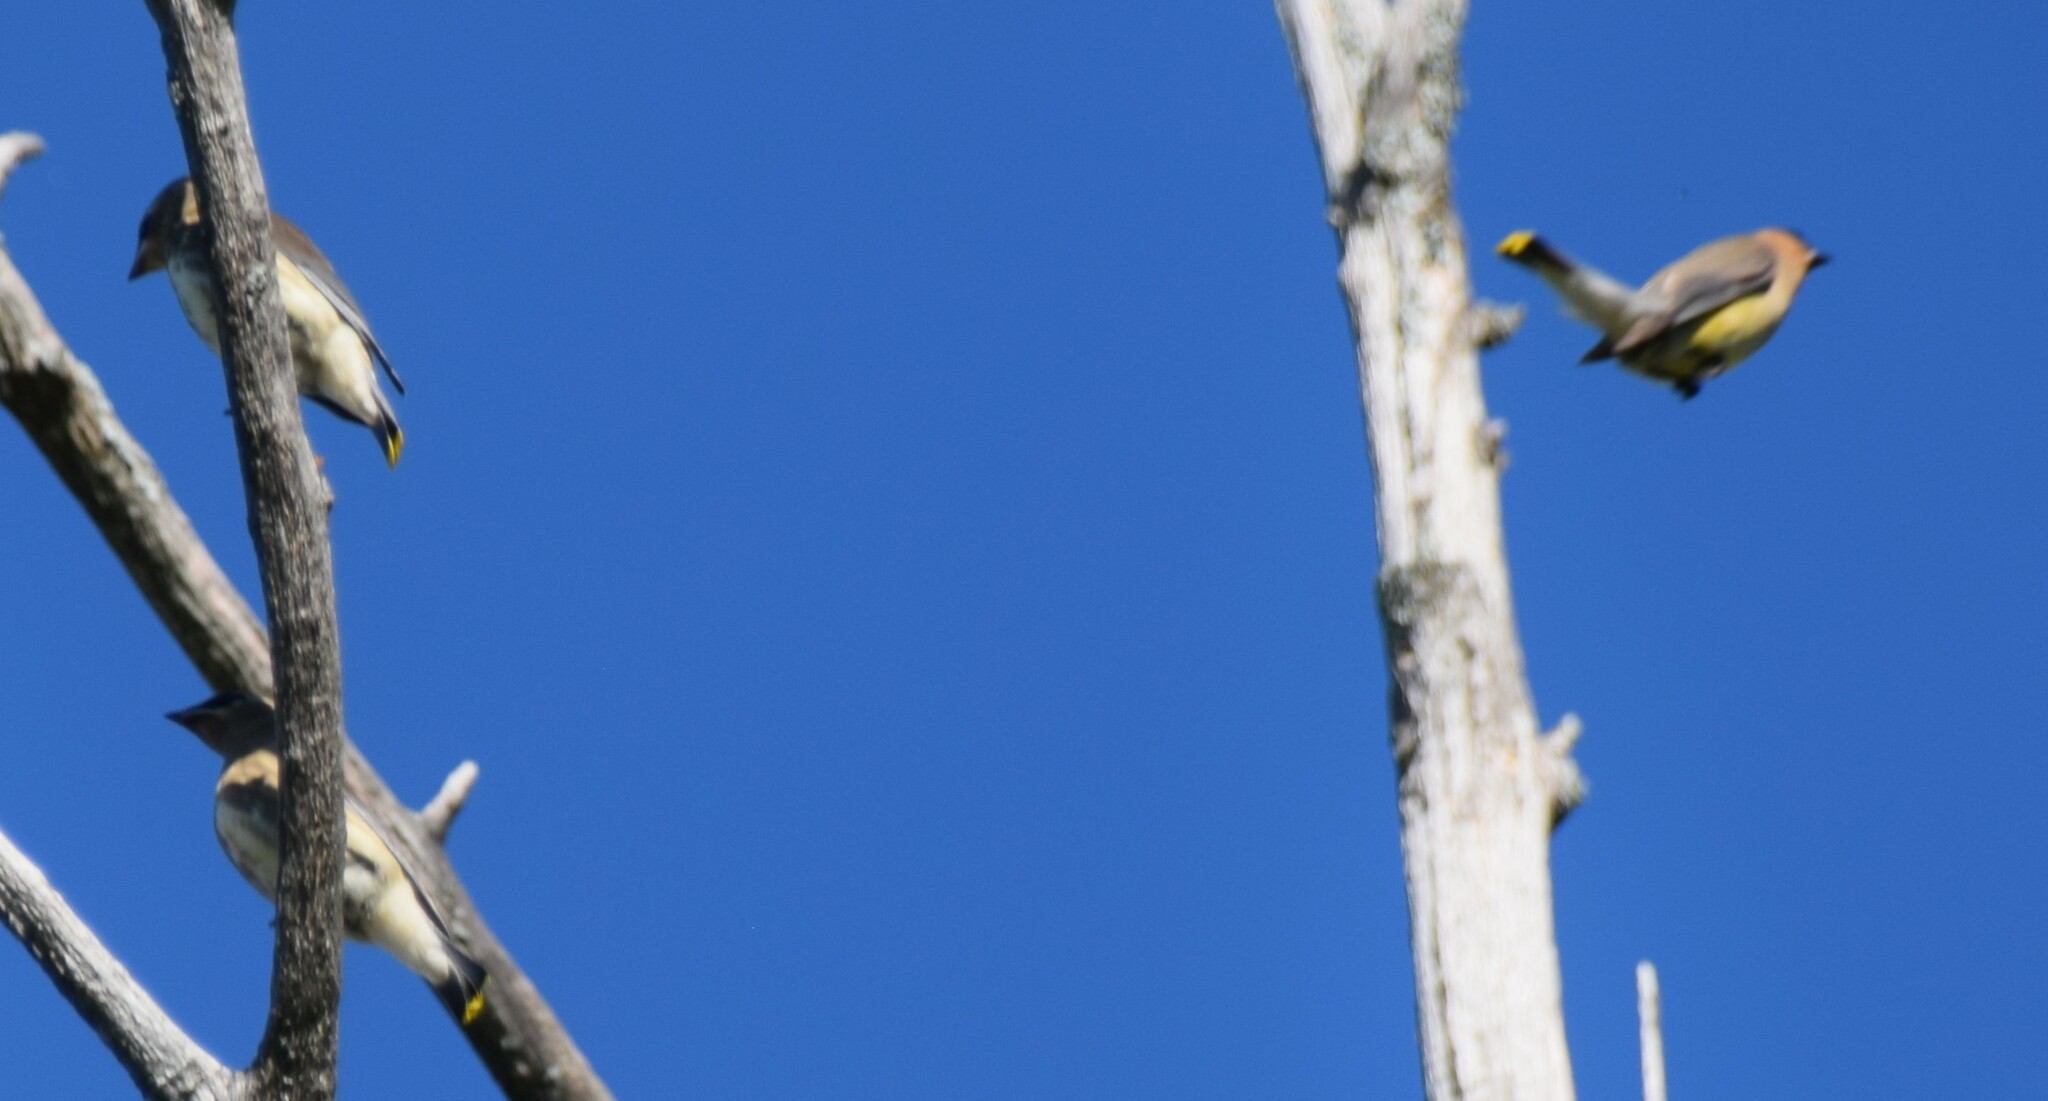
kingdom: Animalia
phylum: Chordata
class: Aves
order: Passeriformes
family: Bombycillidae
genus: Bombycilla
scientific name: Bombycilla cedrorum
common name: Cedar waxwing
